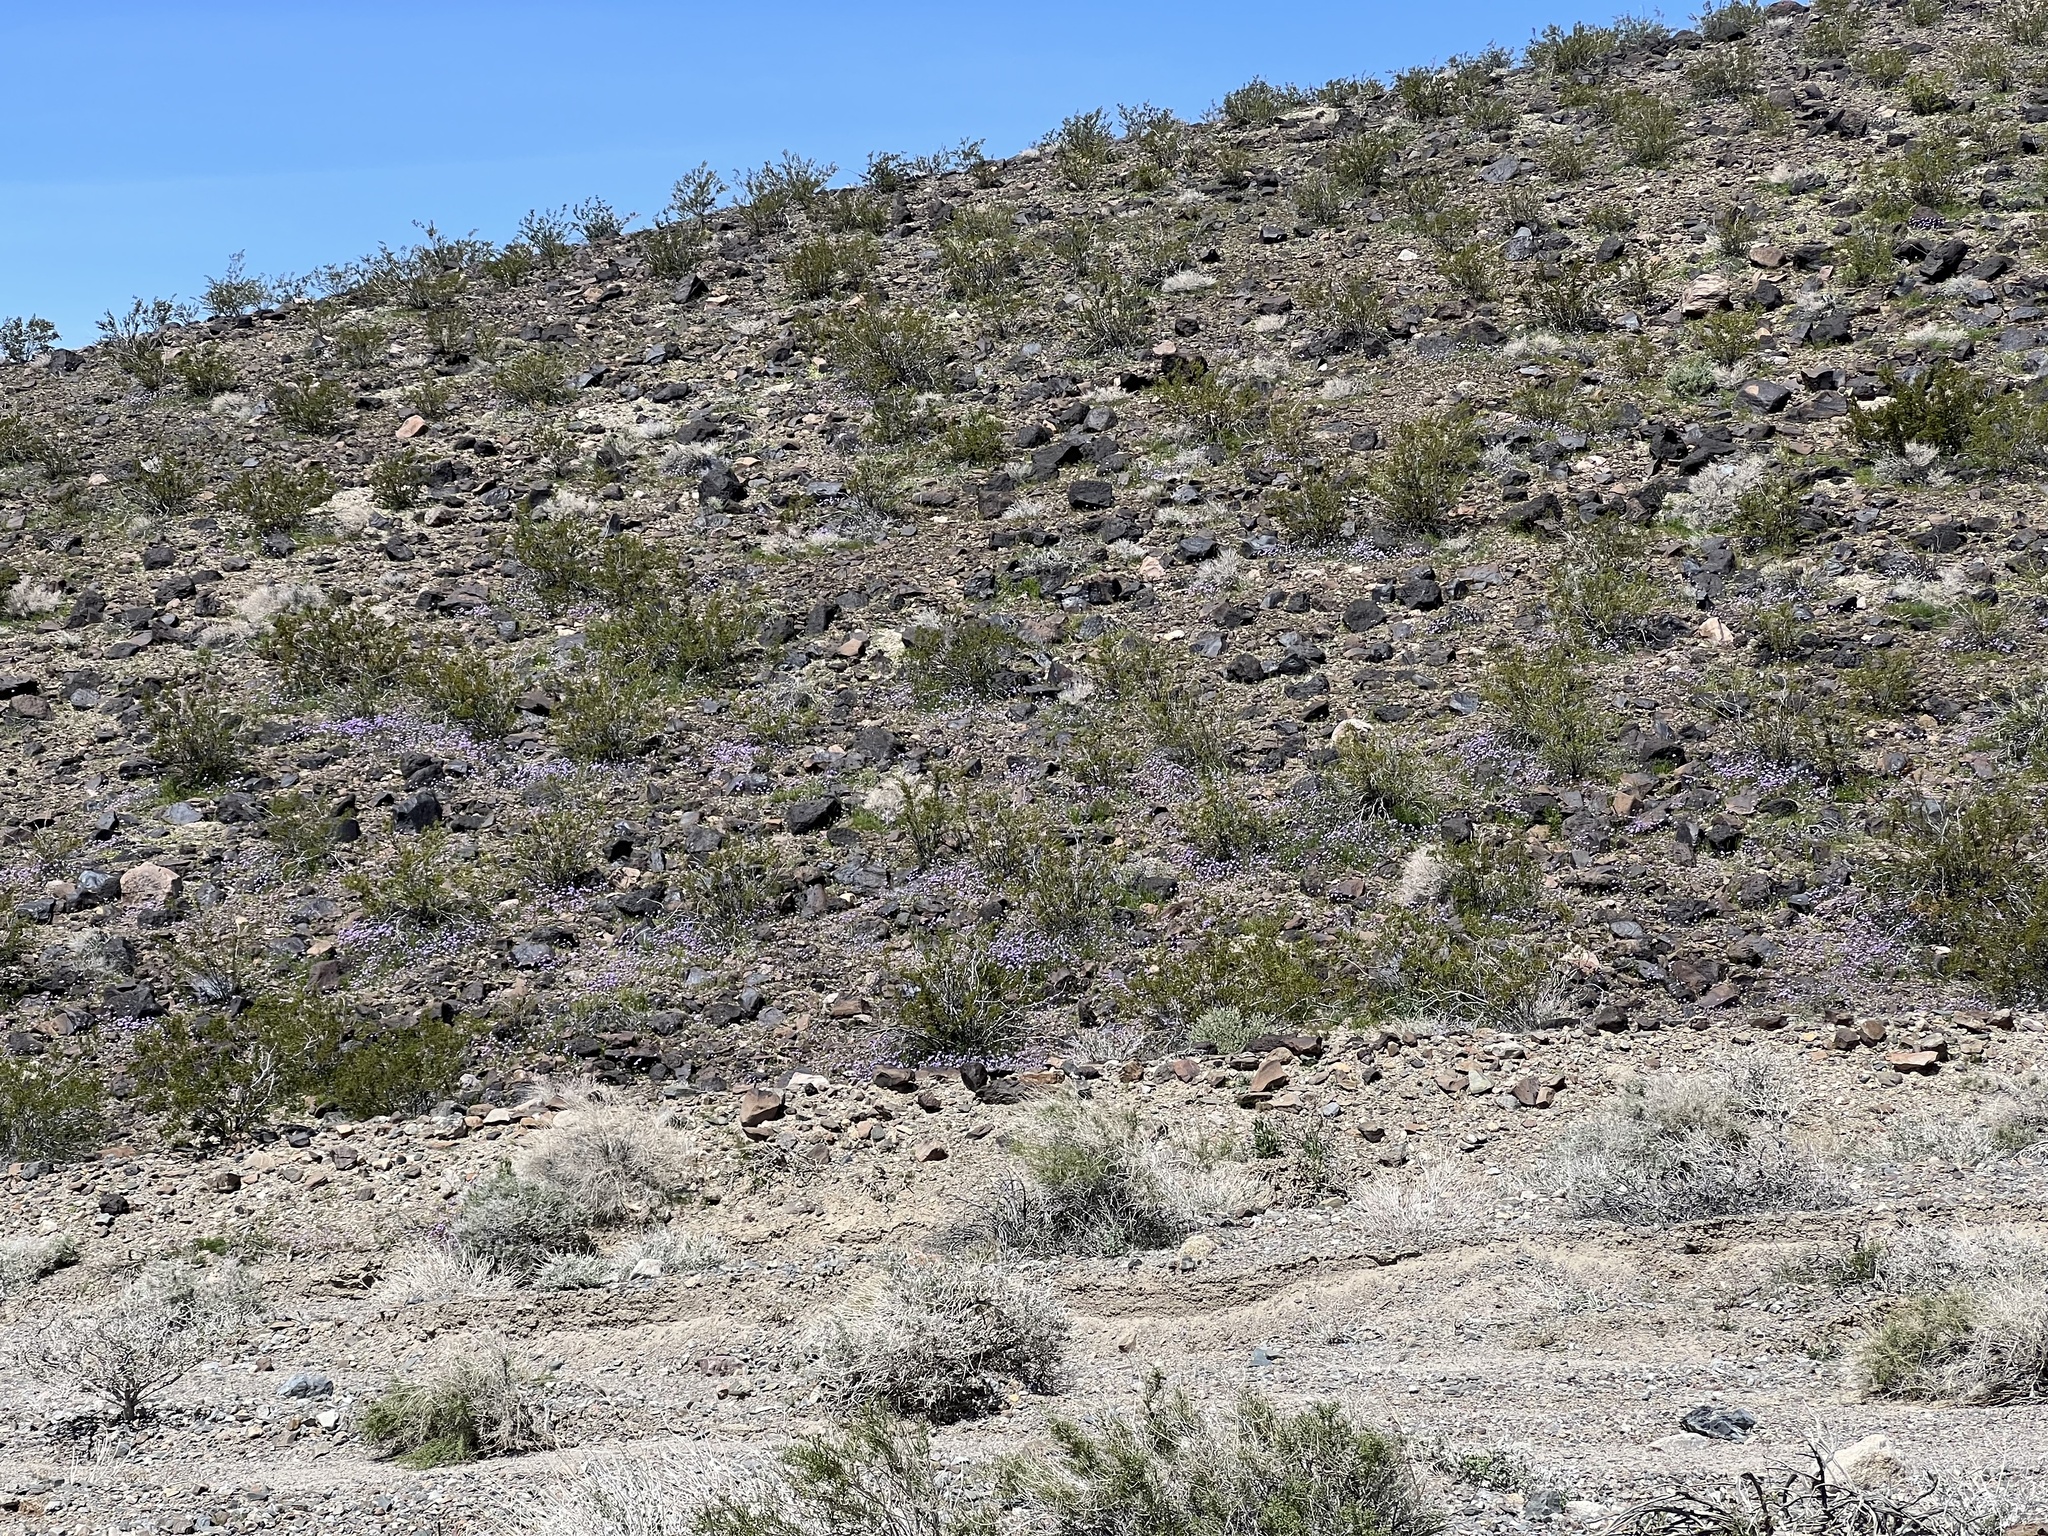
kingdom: Plantae
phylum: Tracheophyta
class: Magnoliopsida
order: Asterales
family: Asteraceae
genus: Encelia
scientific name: Encelia actoni
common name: Acton encelia
